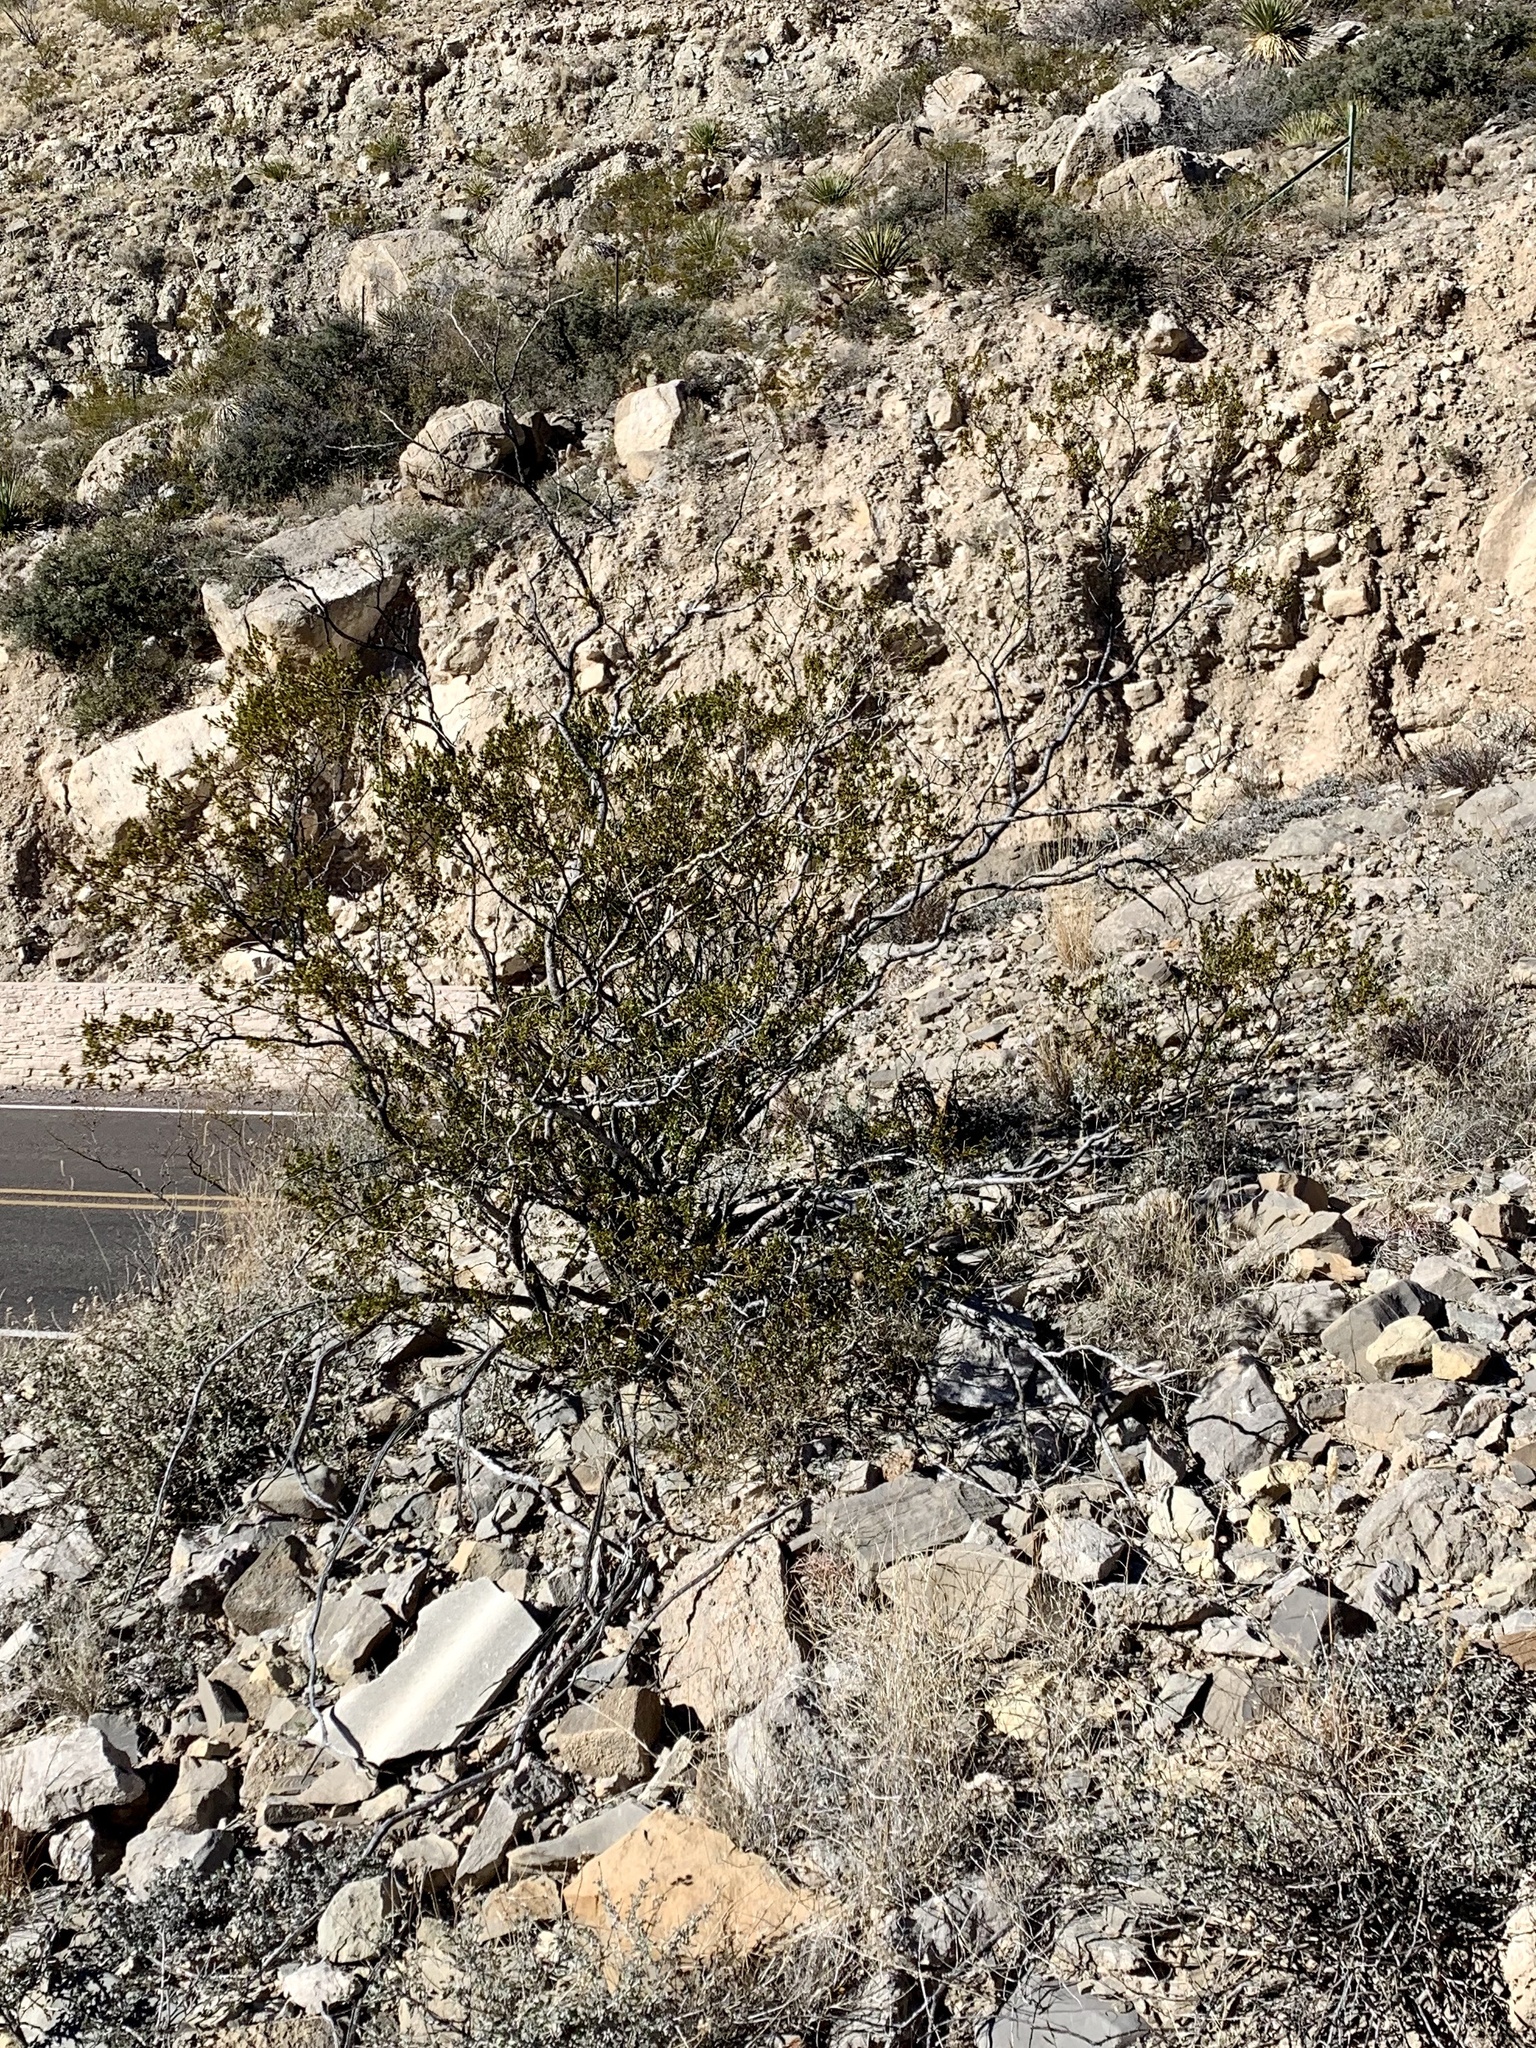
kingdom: Plantae
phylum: Tracheophyta
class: Magnoliopsida
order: Zygophyllales
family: Zygophyllaceae
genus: Larrea
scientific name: Larrea tridentata
